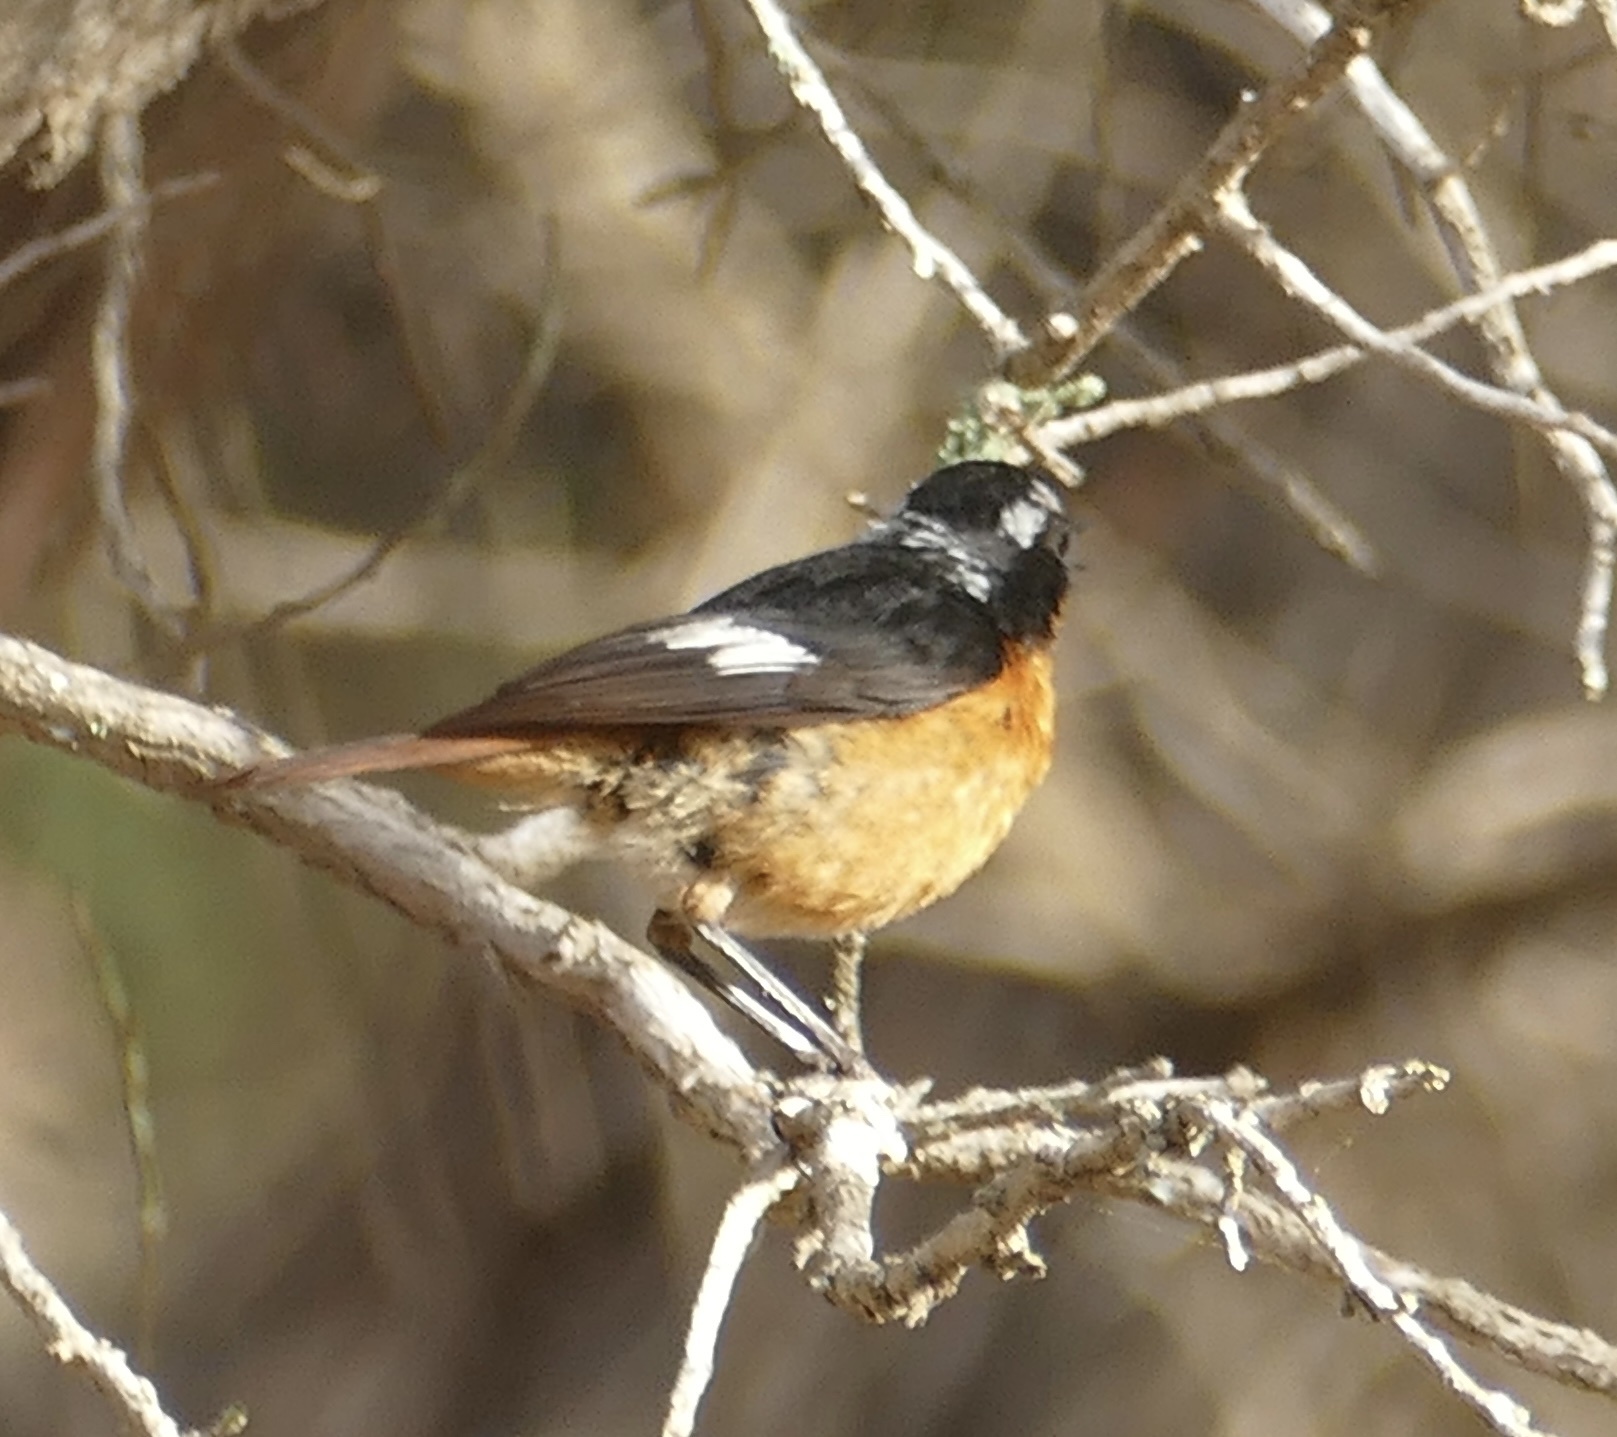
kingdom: Animalia
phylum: Chordata
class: Aves
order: Passeriformes
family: Muscicapidae
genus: Phoenicurus
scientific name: Phoenicurus moussieri
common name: Moussier's redstart
